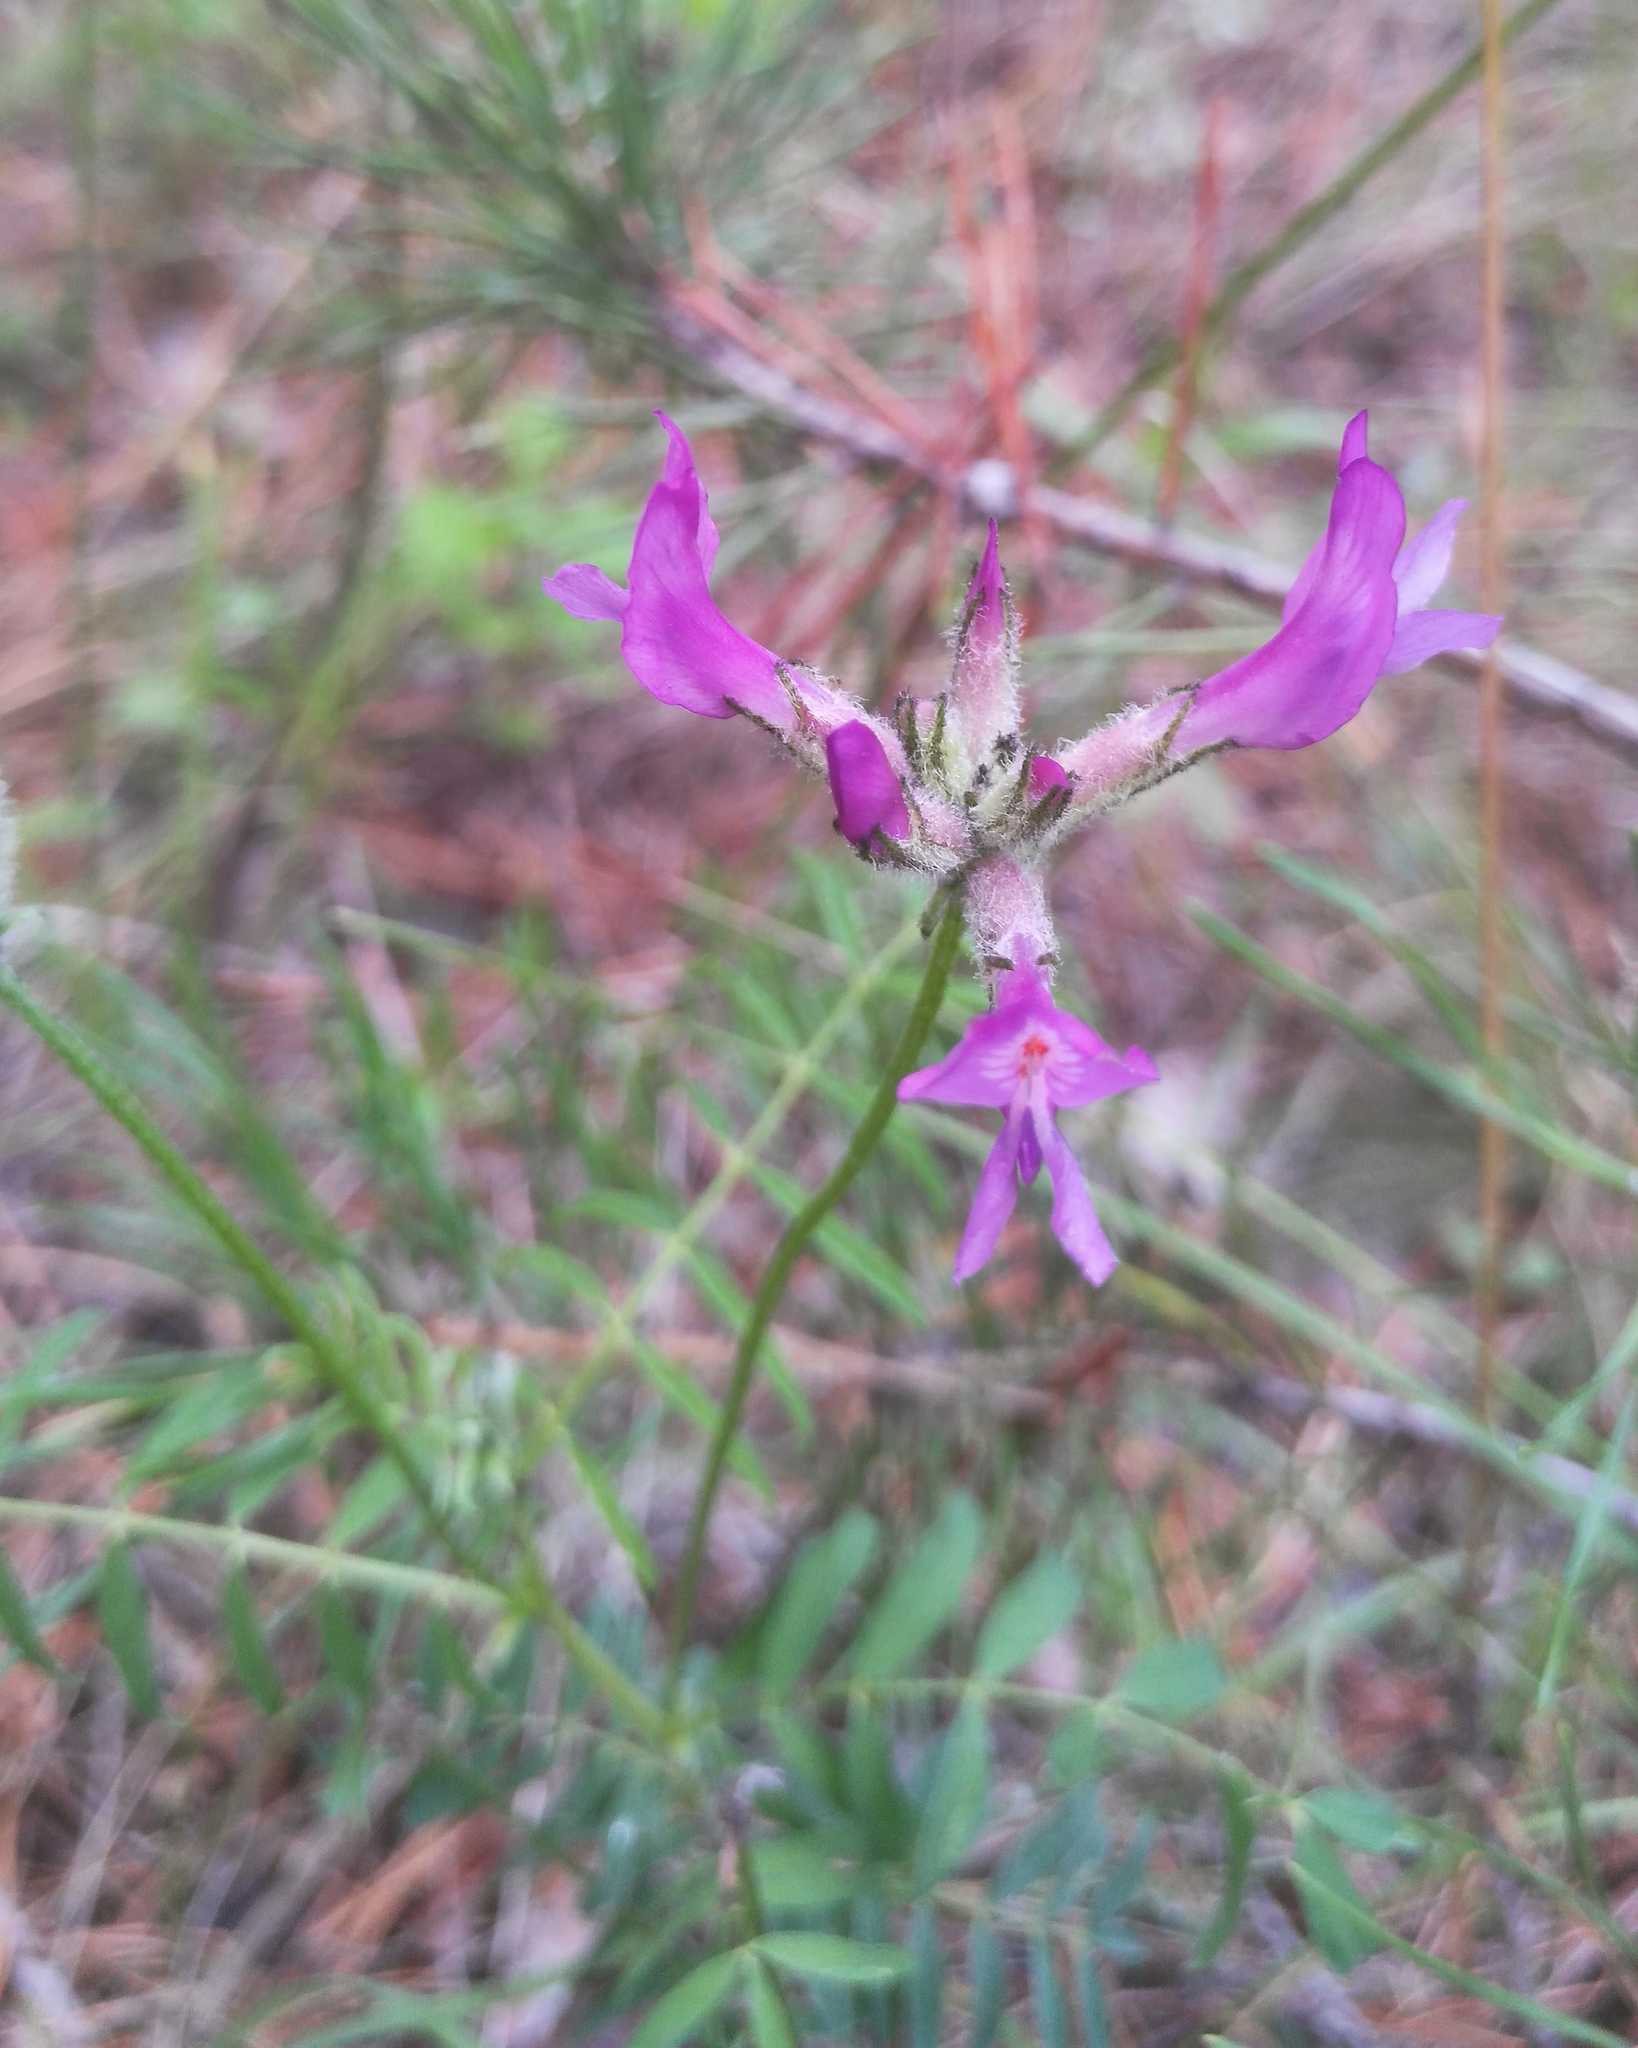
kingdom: Plantae
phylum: Tracheophyta
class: Magnoliopsida
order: Fabales
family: Fabaceae
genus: Astragalus
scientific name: Astragalus syriacus
